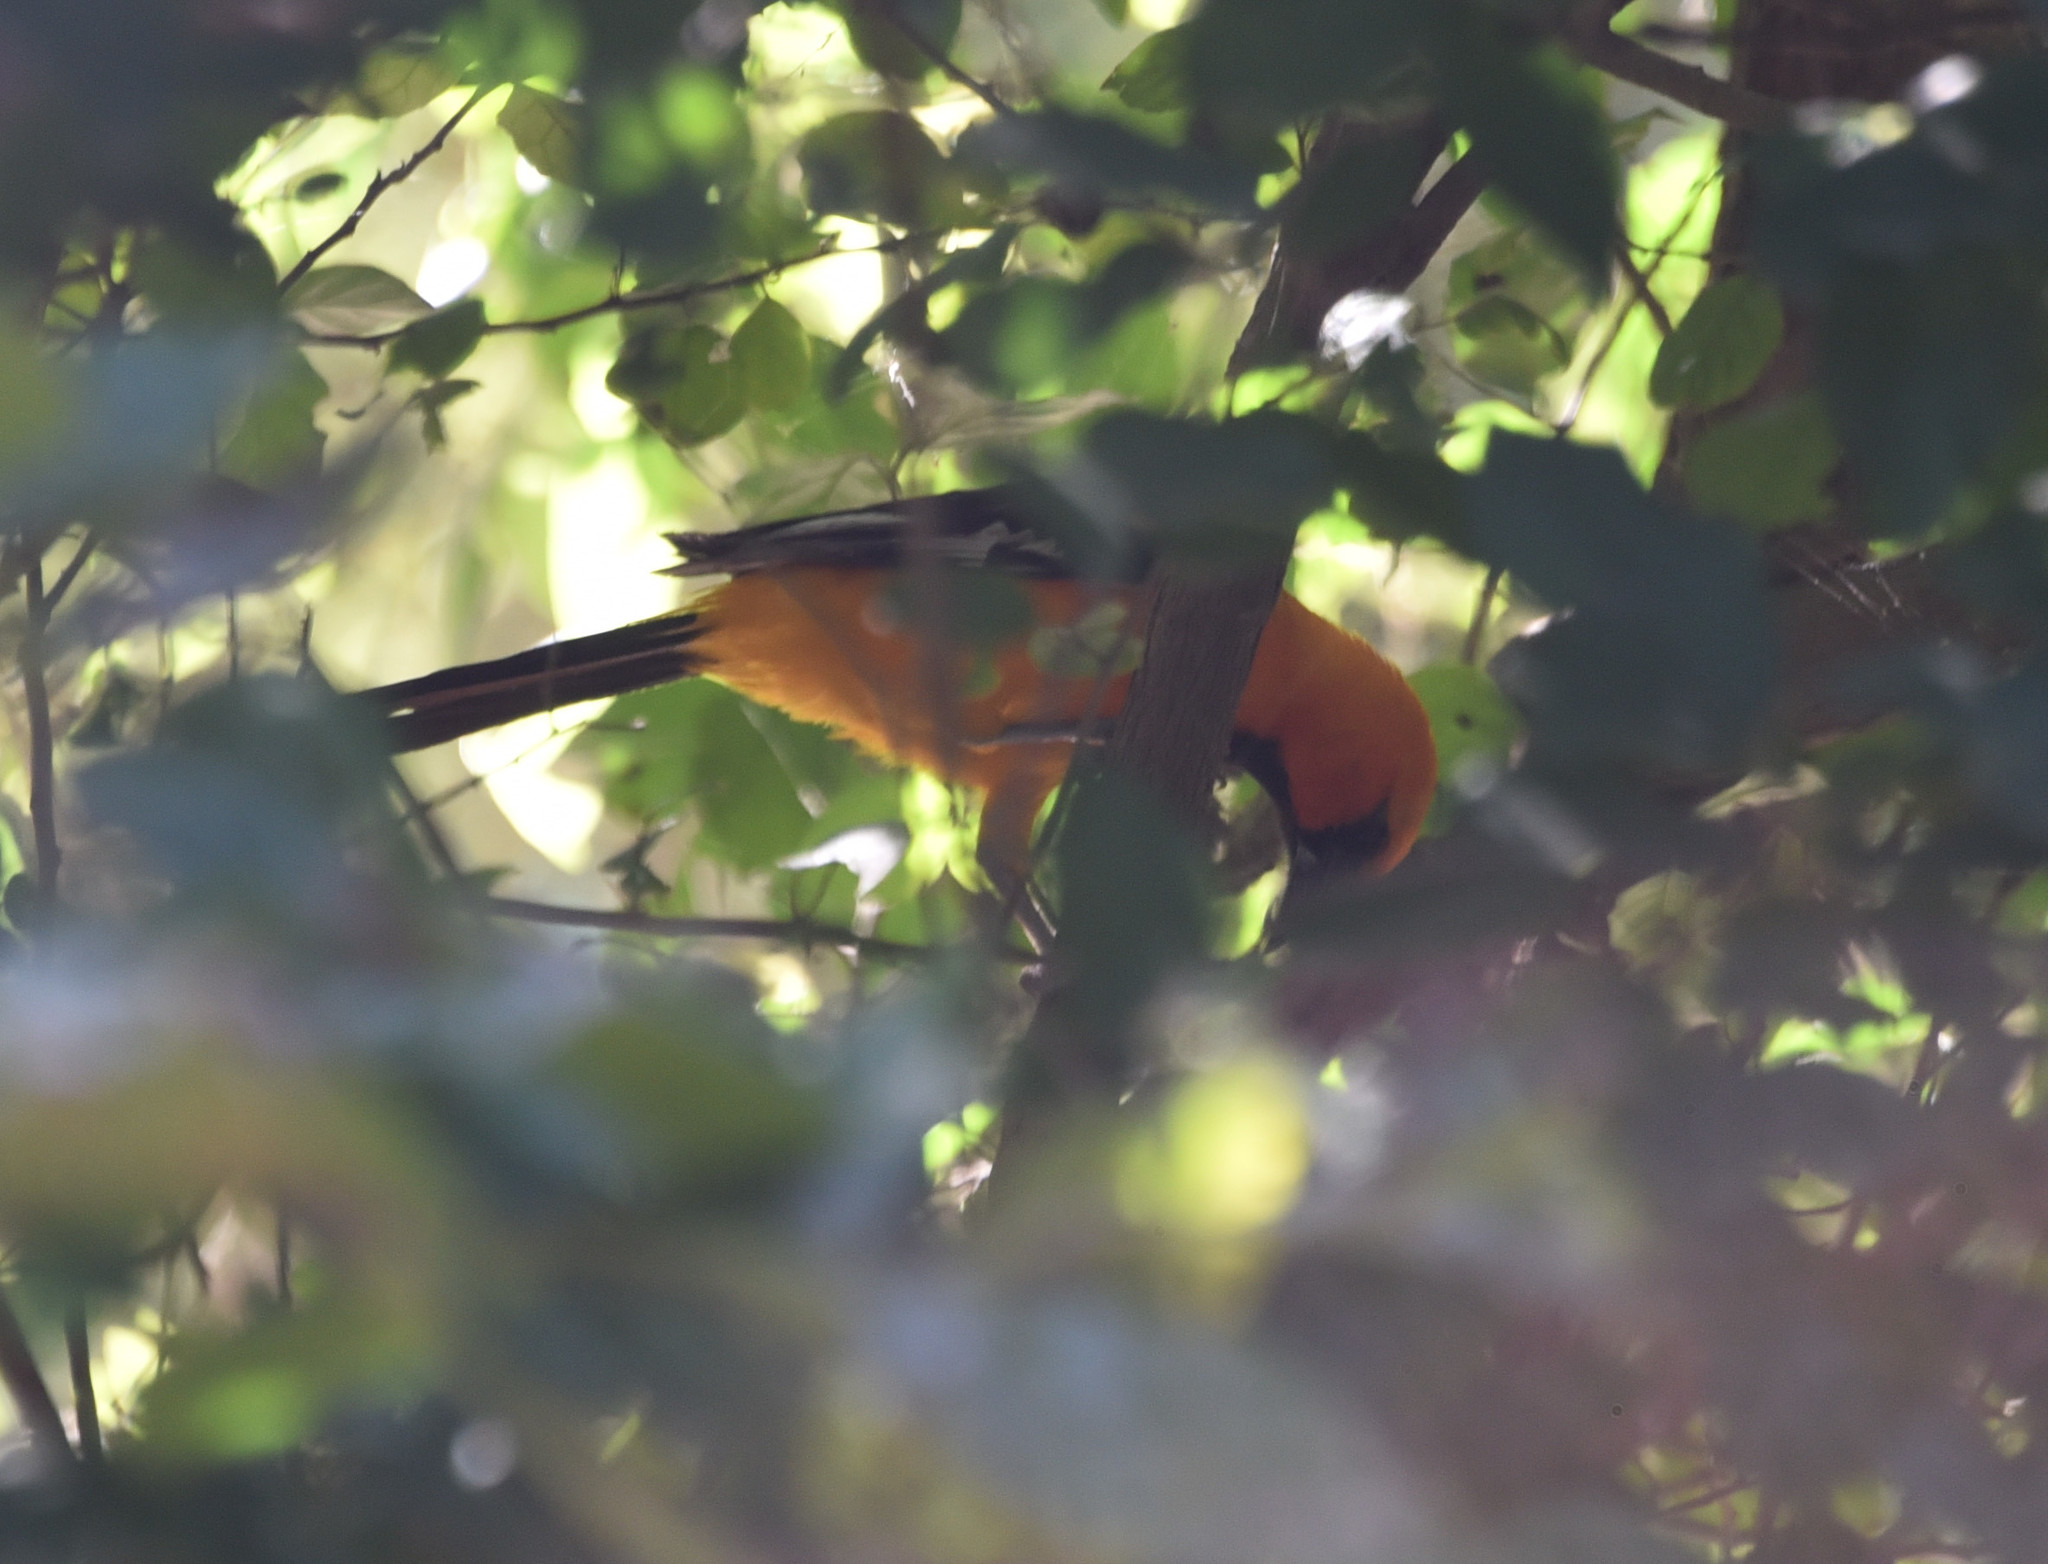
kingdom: Animalia
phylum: Chordata
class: Aves
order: Passeriformes
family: Icteridae
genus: Icterus
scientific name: Icterus gularis
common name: Altamira oriole
